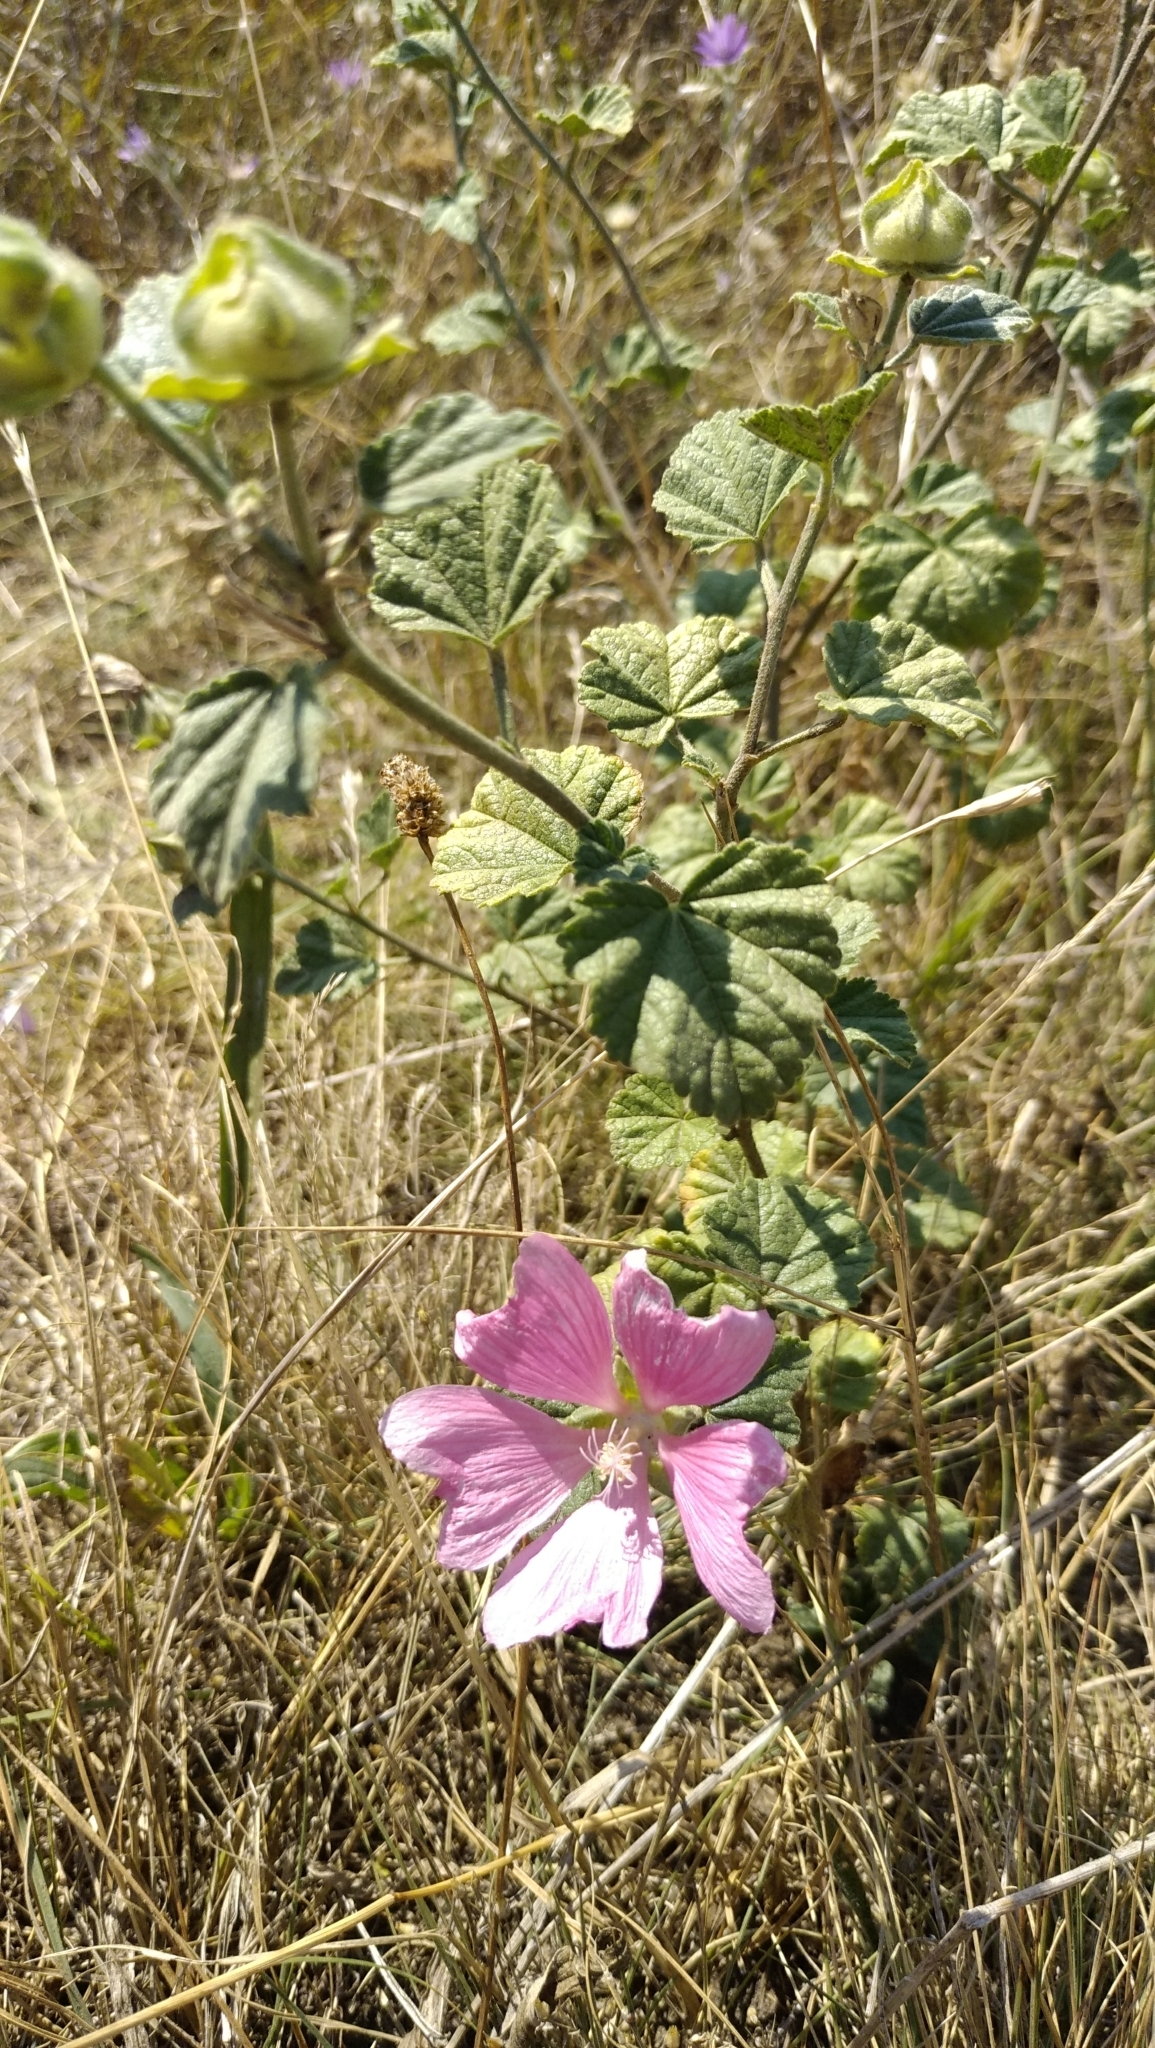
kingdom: Plantae
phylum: Tracheophyta
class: Magnoliopsida
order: Malvales
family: Malvaceae
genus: Malva
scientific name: Malva thuringiaca
